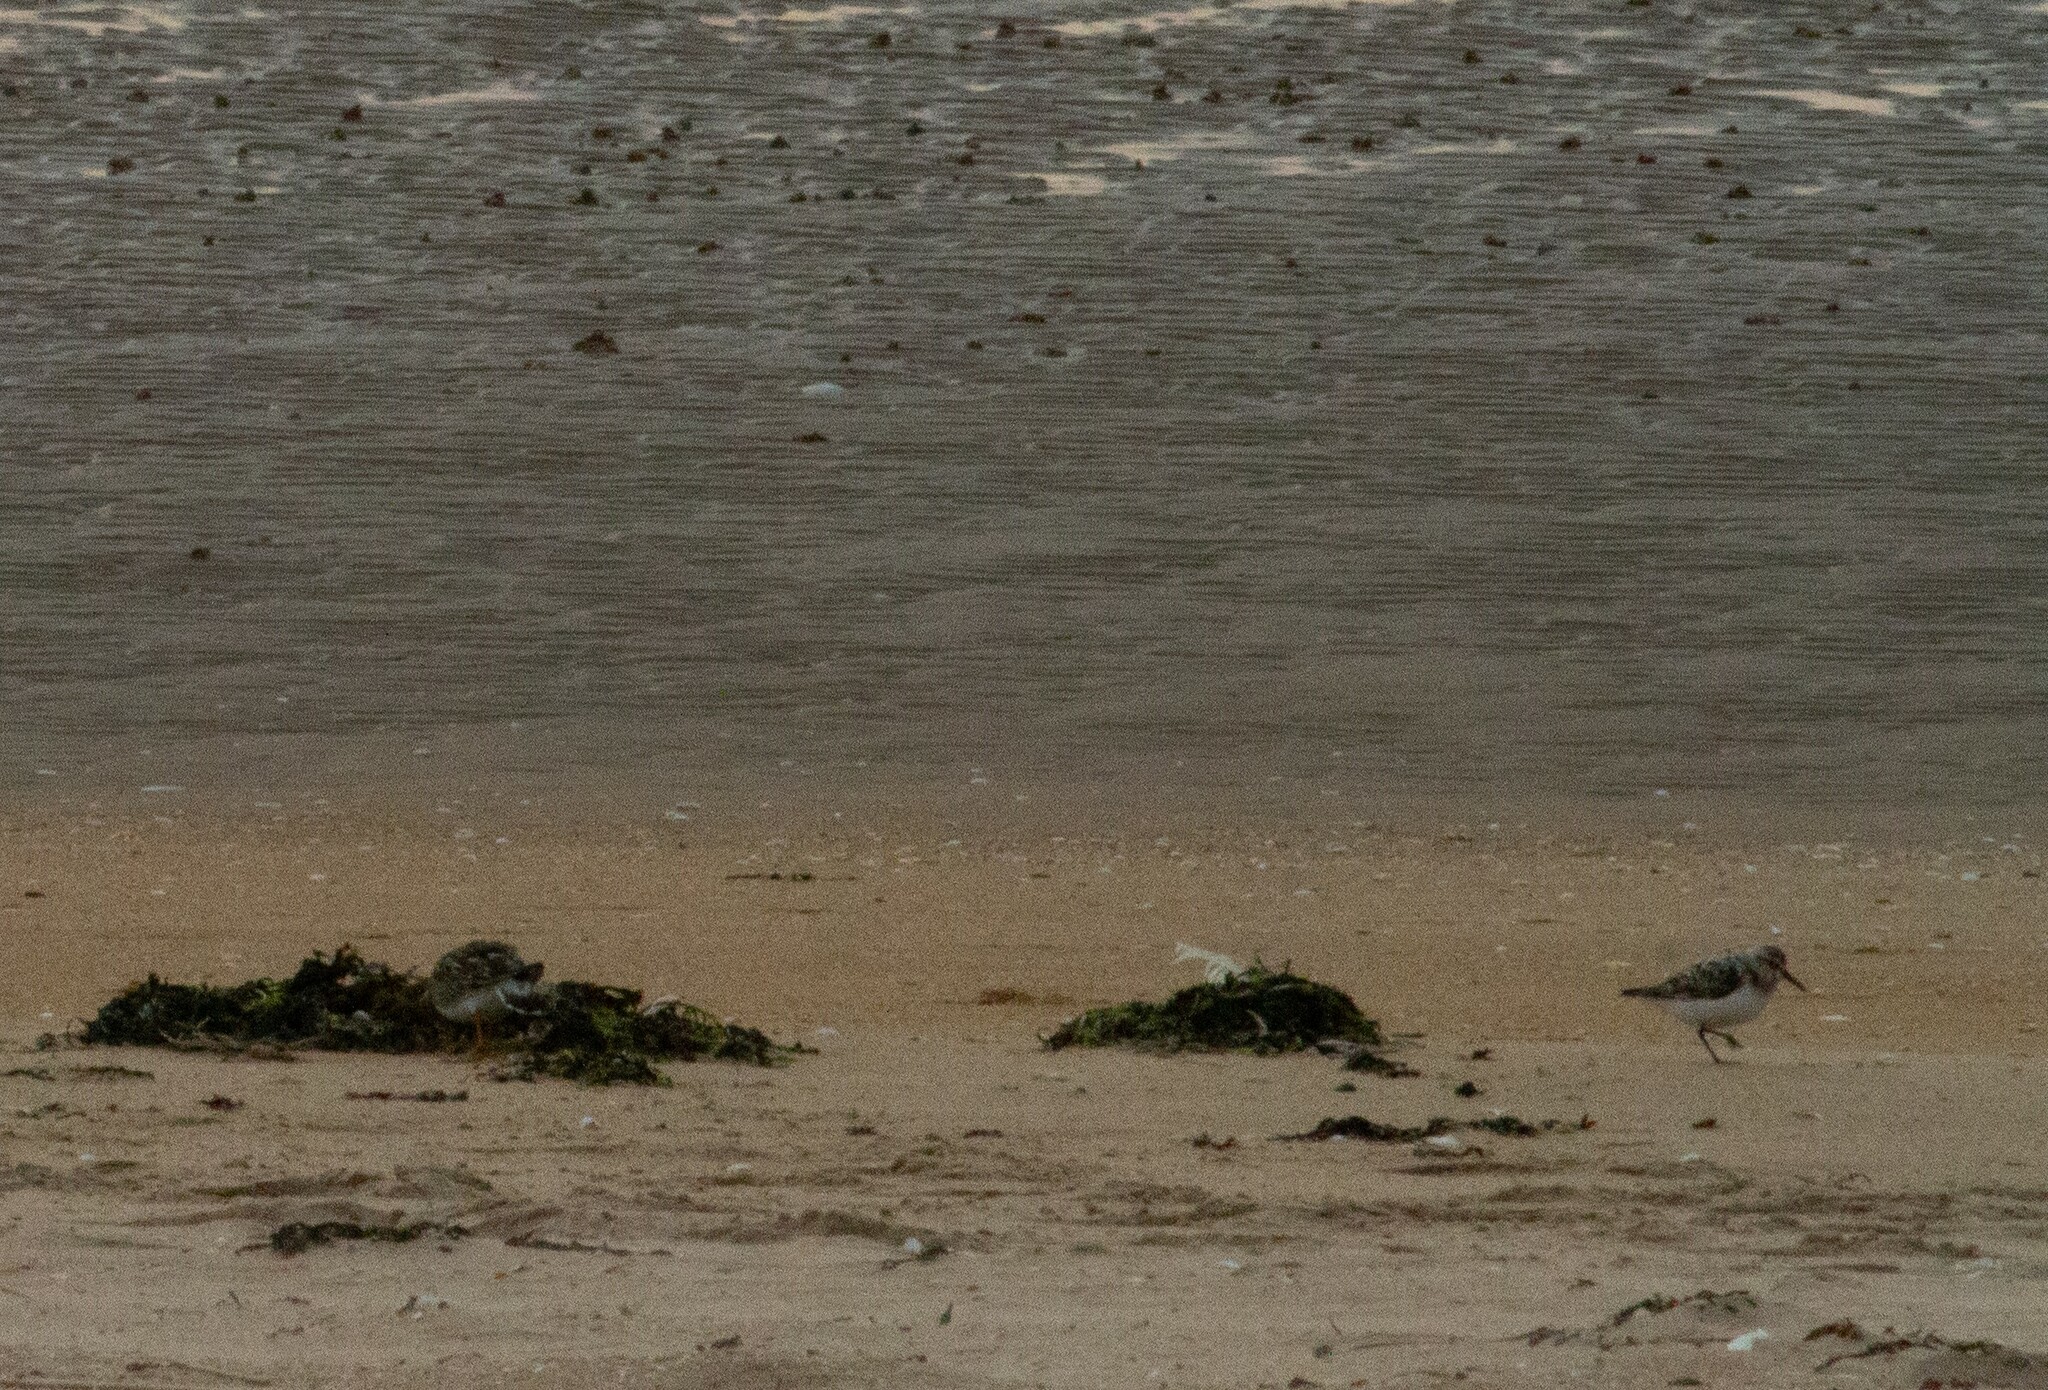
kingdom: Animalia
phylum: Chordata
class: Aves
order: Charadriiformes
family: Scolopacidae
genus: Calidris
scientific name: Calidris alba
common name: Sanderling
